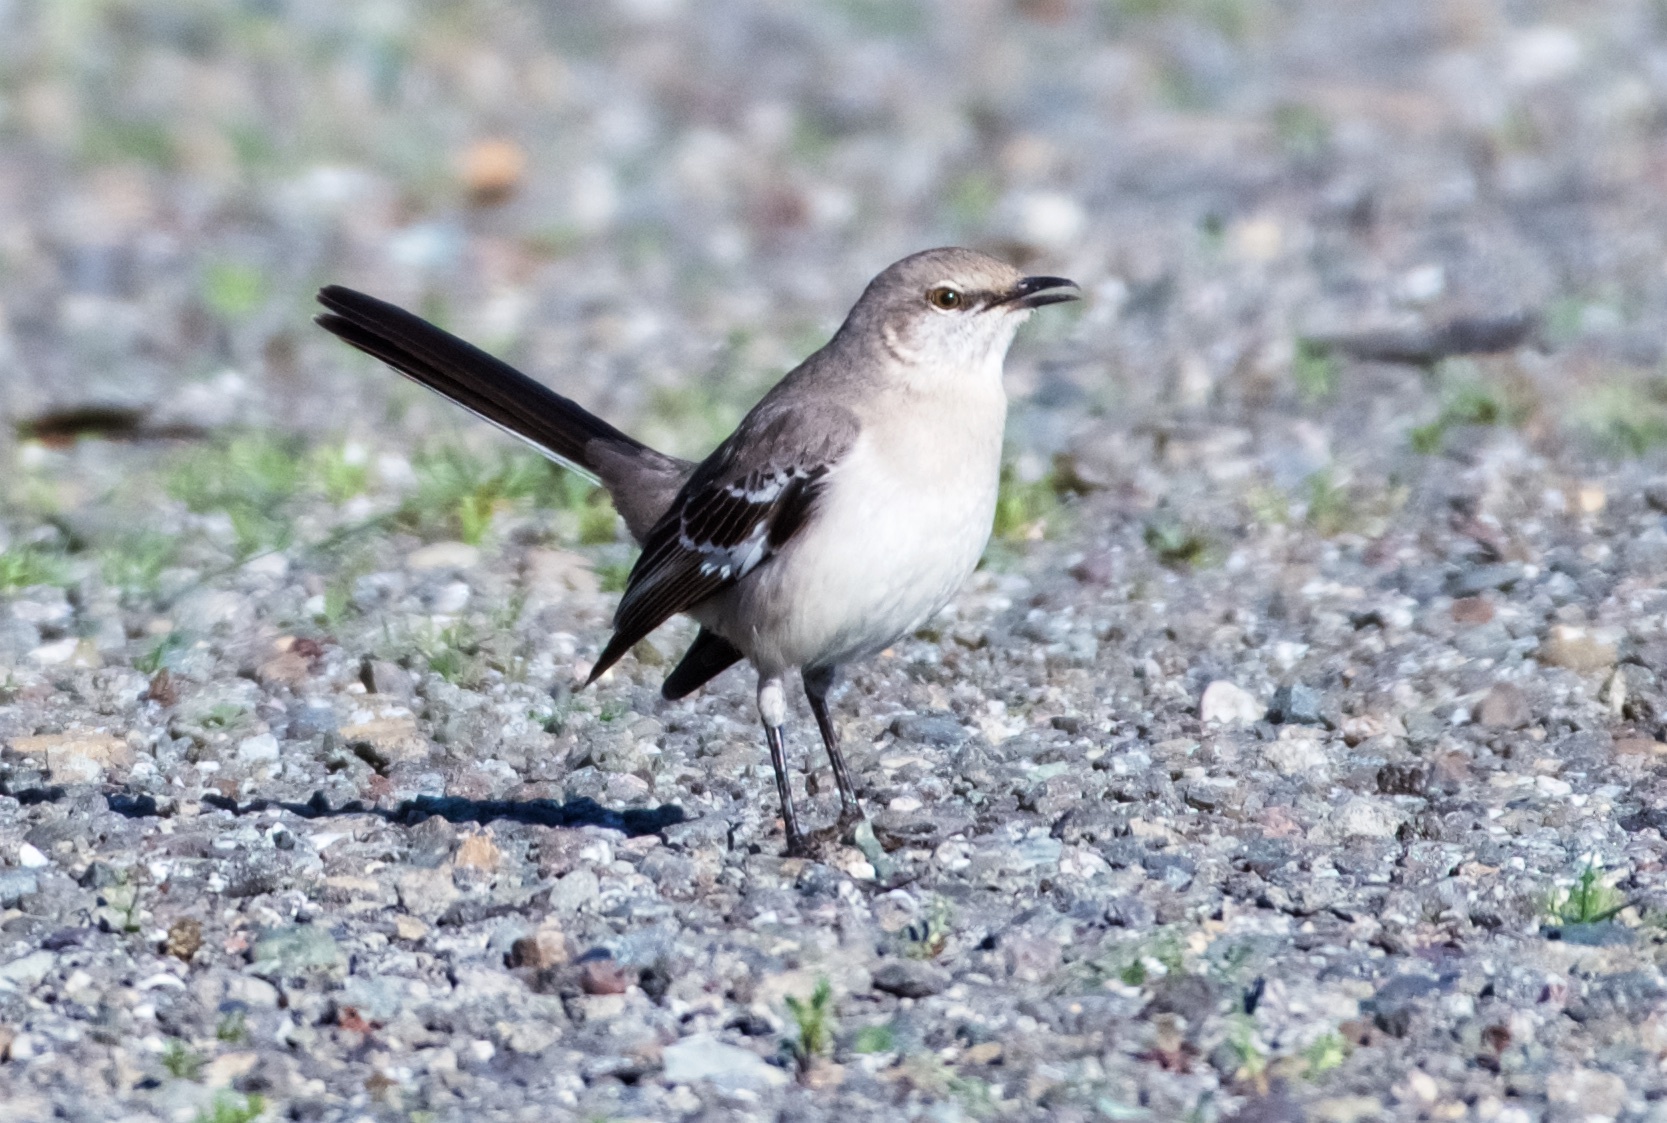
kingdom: Animalia
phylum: Chordata
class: Aves
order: Passeriformes
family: Mimidae
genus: Mimus
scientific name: Mimus polyglottos
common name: Northern mockingbird
